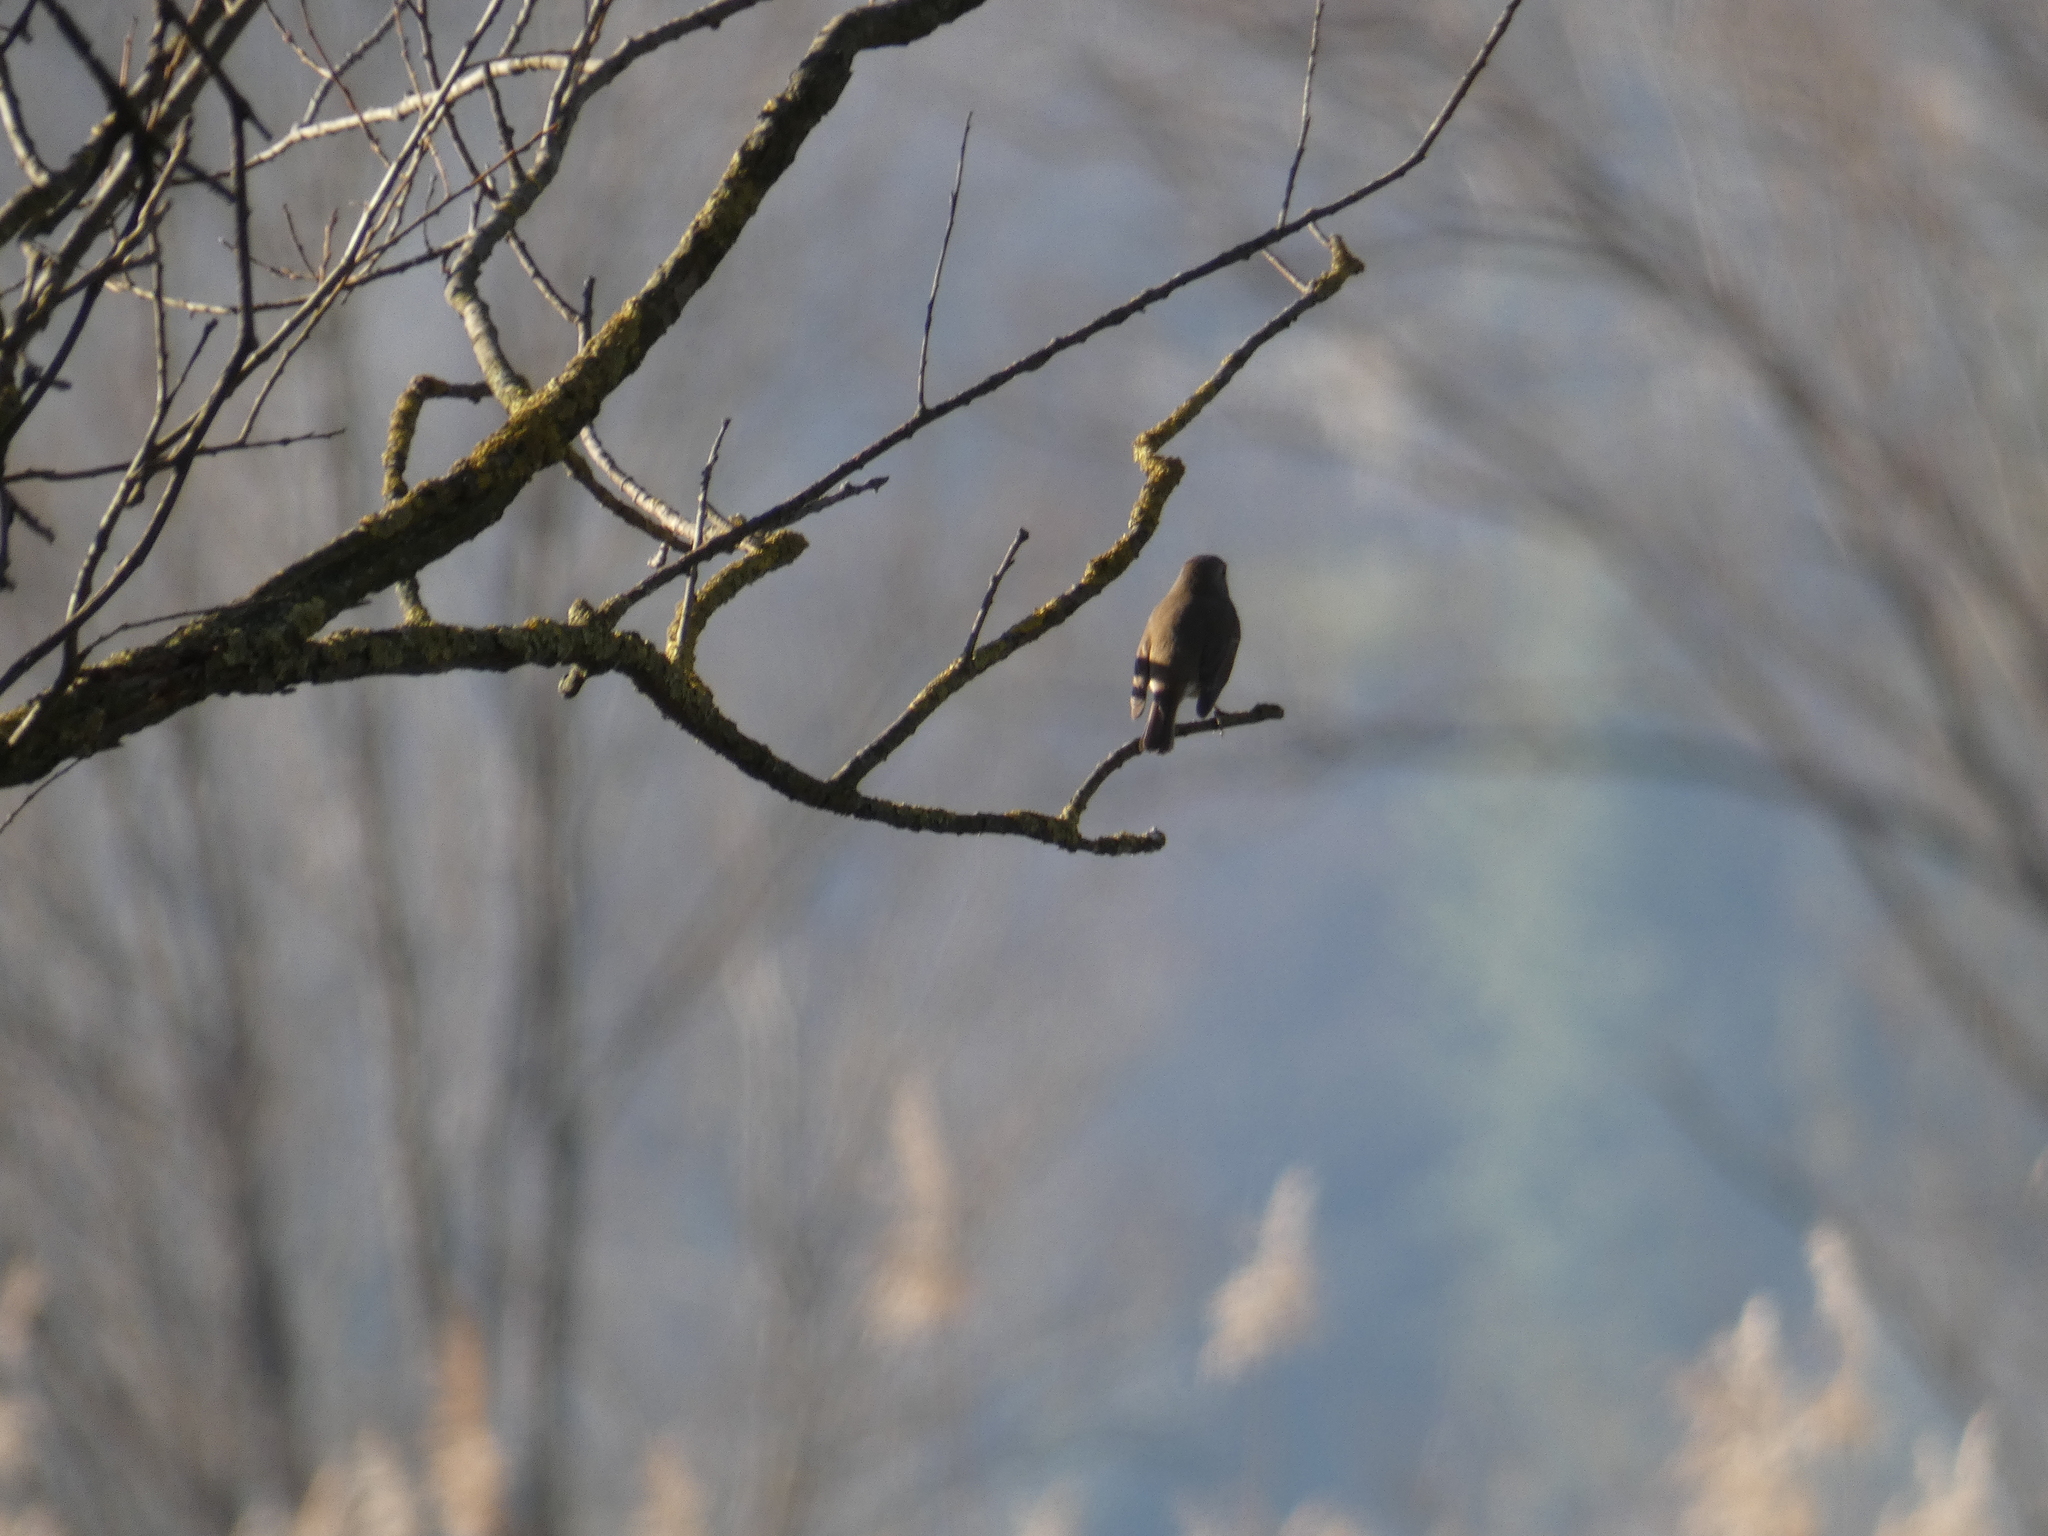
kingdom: Animalia
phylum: Chordata
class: Aves
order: Passeriformes
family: Muscicapidae
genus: Erithacus
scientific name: Erithacus rubecula
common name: European robin
